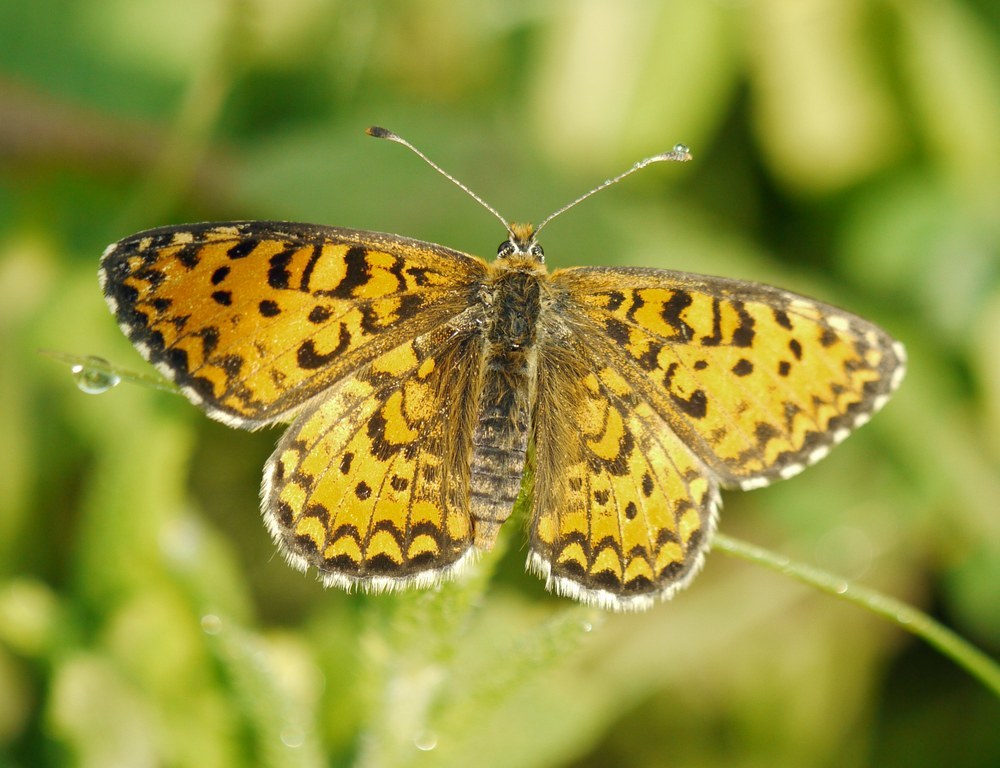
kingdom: Animalia
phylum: Arthropoda
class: Insecta
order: Lepidoptera
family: Nymphalidae
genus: Melitaea
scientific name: Melitaea trivia
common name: Lesser spotted fritillary
